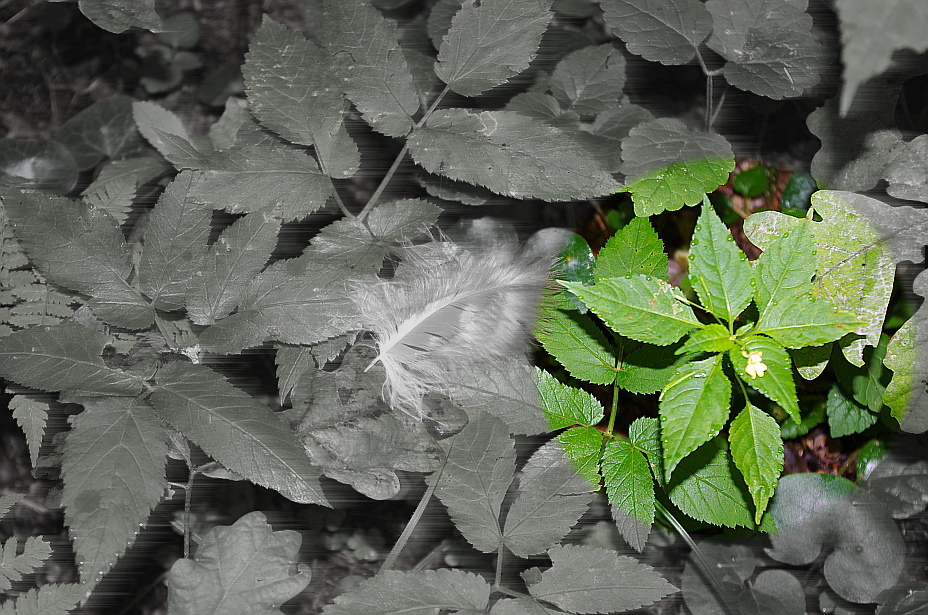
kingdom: Plantae
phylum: Tracheophyta
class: Magnoliopsida
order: Ericales
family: Balsaminaceae
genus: Impatiens
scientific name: Impatiens parviflora
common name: Small balsam
